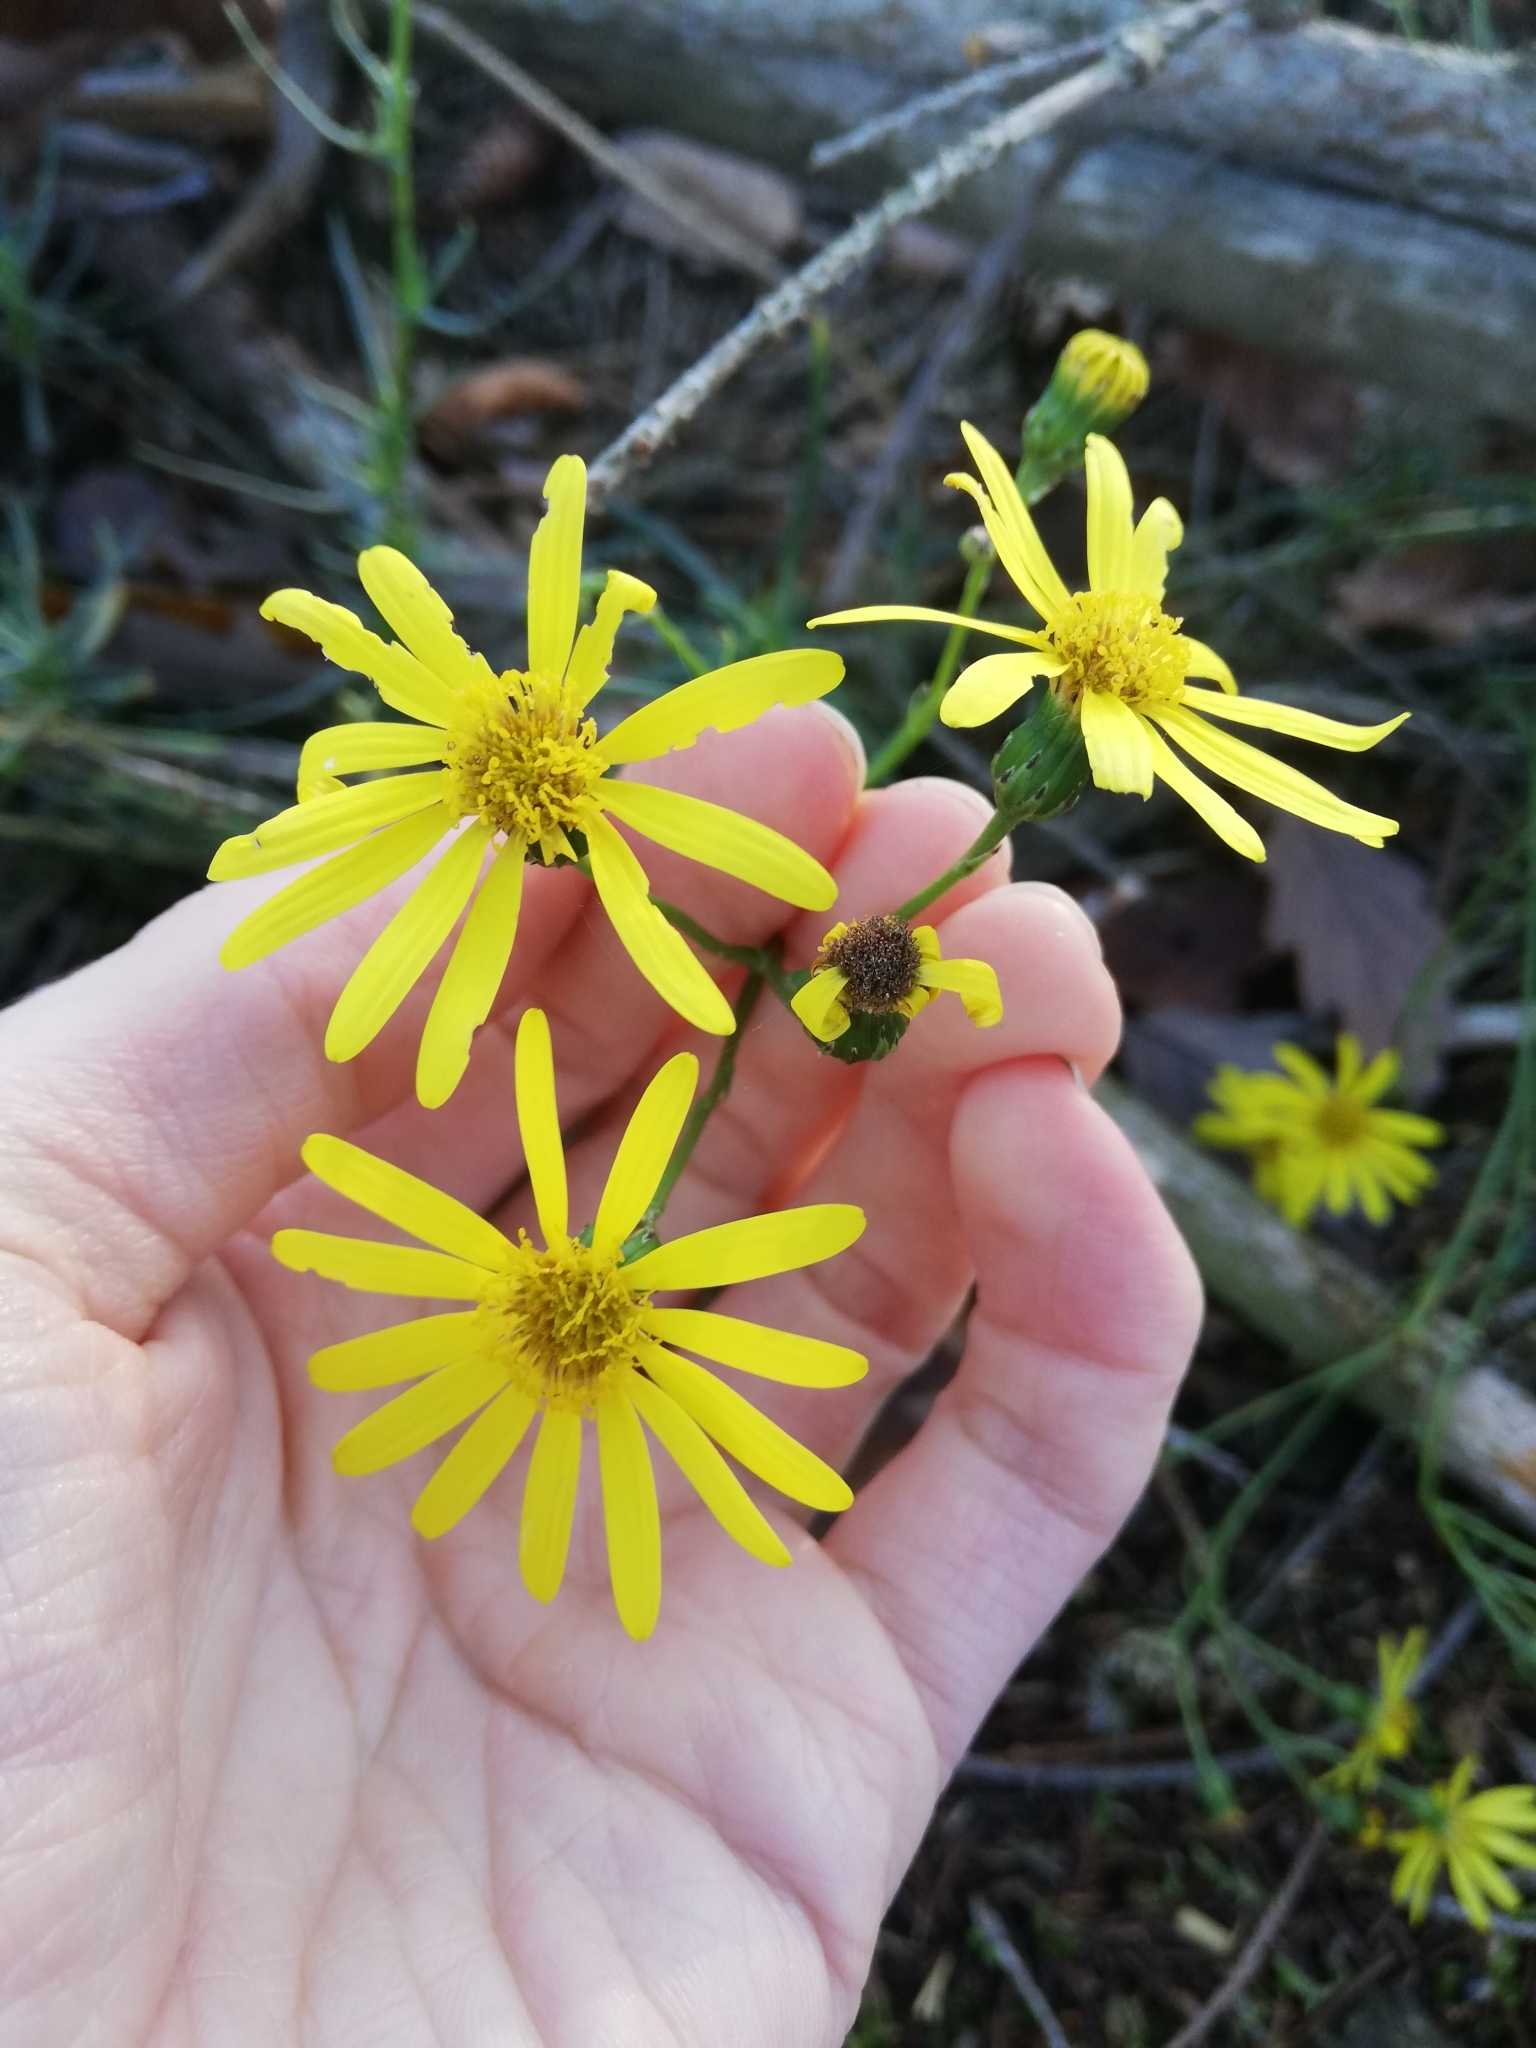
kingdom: Plantae
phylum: Tracheophyta
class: Magnoliopsida
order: Asterales
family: Asteraceae
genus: Senecio
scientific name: Senecio inaequidens
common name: Narrow-leaved ragwort
